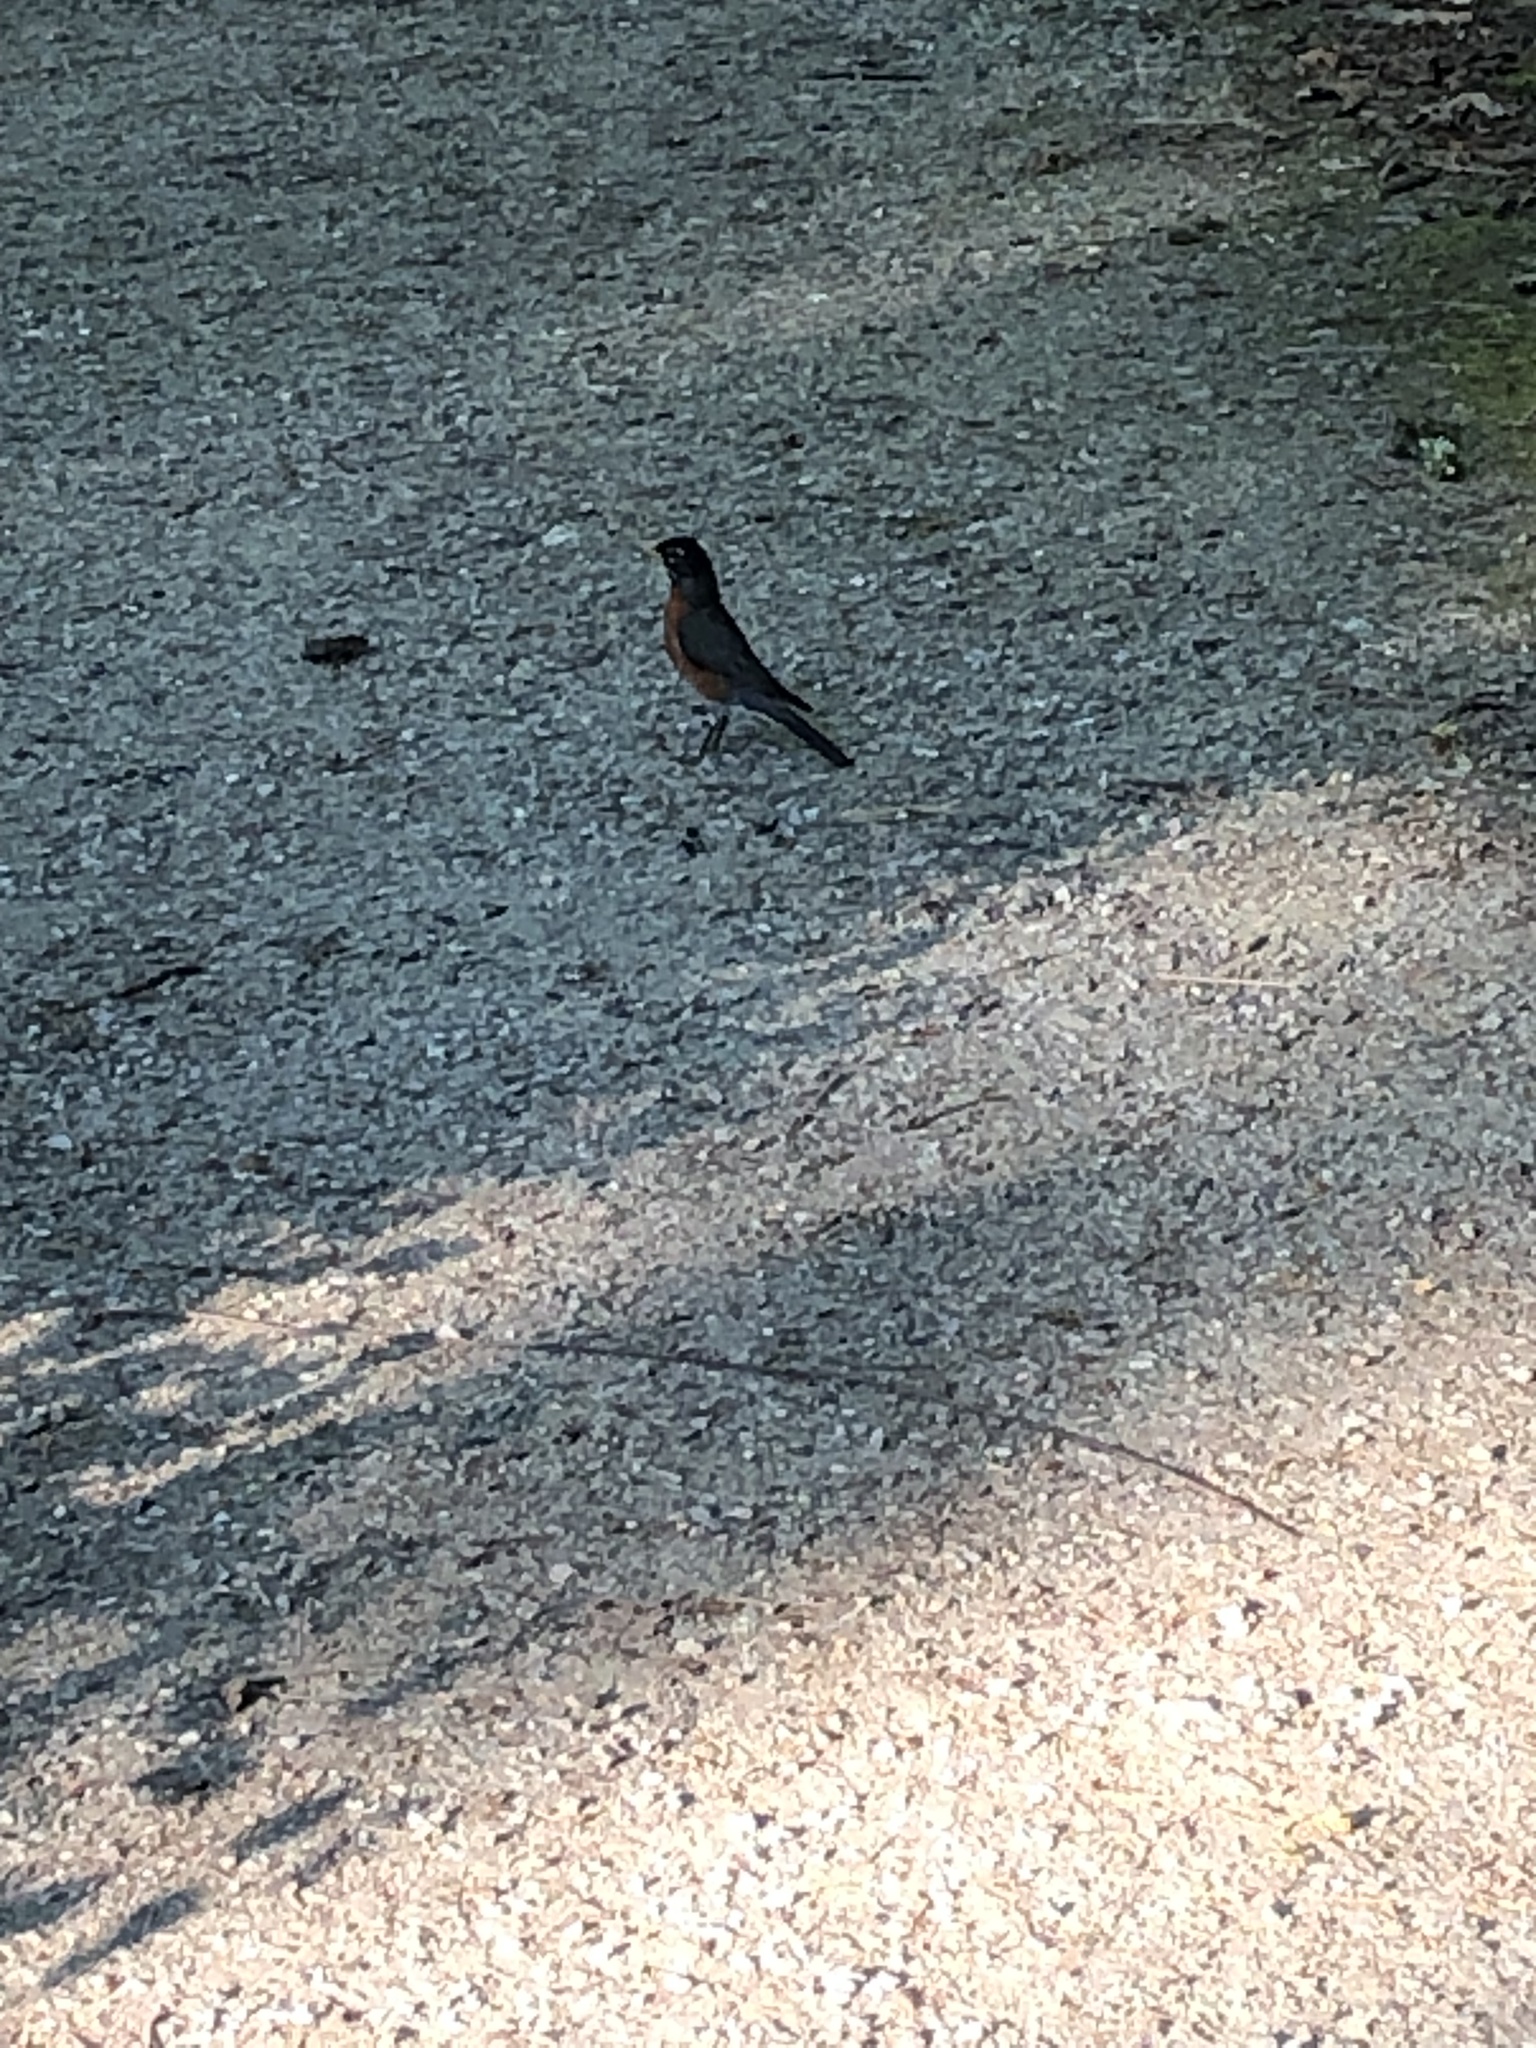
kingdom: Animalia
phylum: Chordata
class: Aves
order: Passeriformes
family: Turdidae
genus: Turdus
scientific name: Turdus migratorius
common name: American robin
